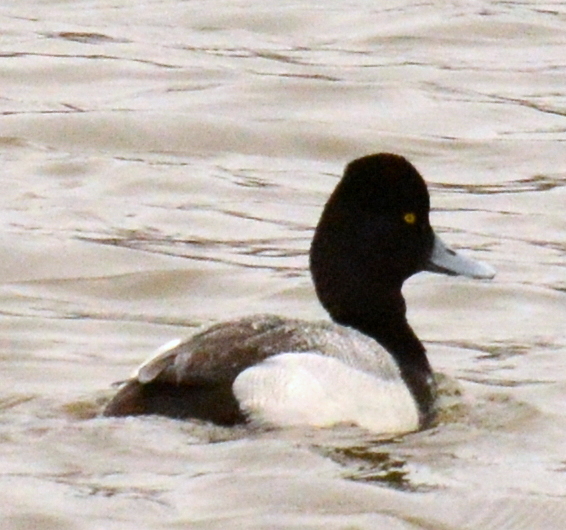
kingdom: Animalia
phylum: Chordata
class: Aves
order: Anseriformes
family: Anatidae
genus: Aythya
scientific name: Aythya affinis
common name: Lesser scaup
